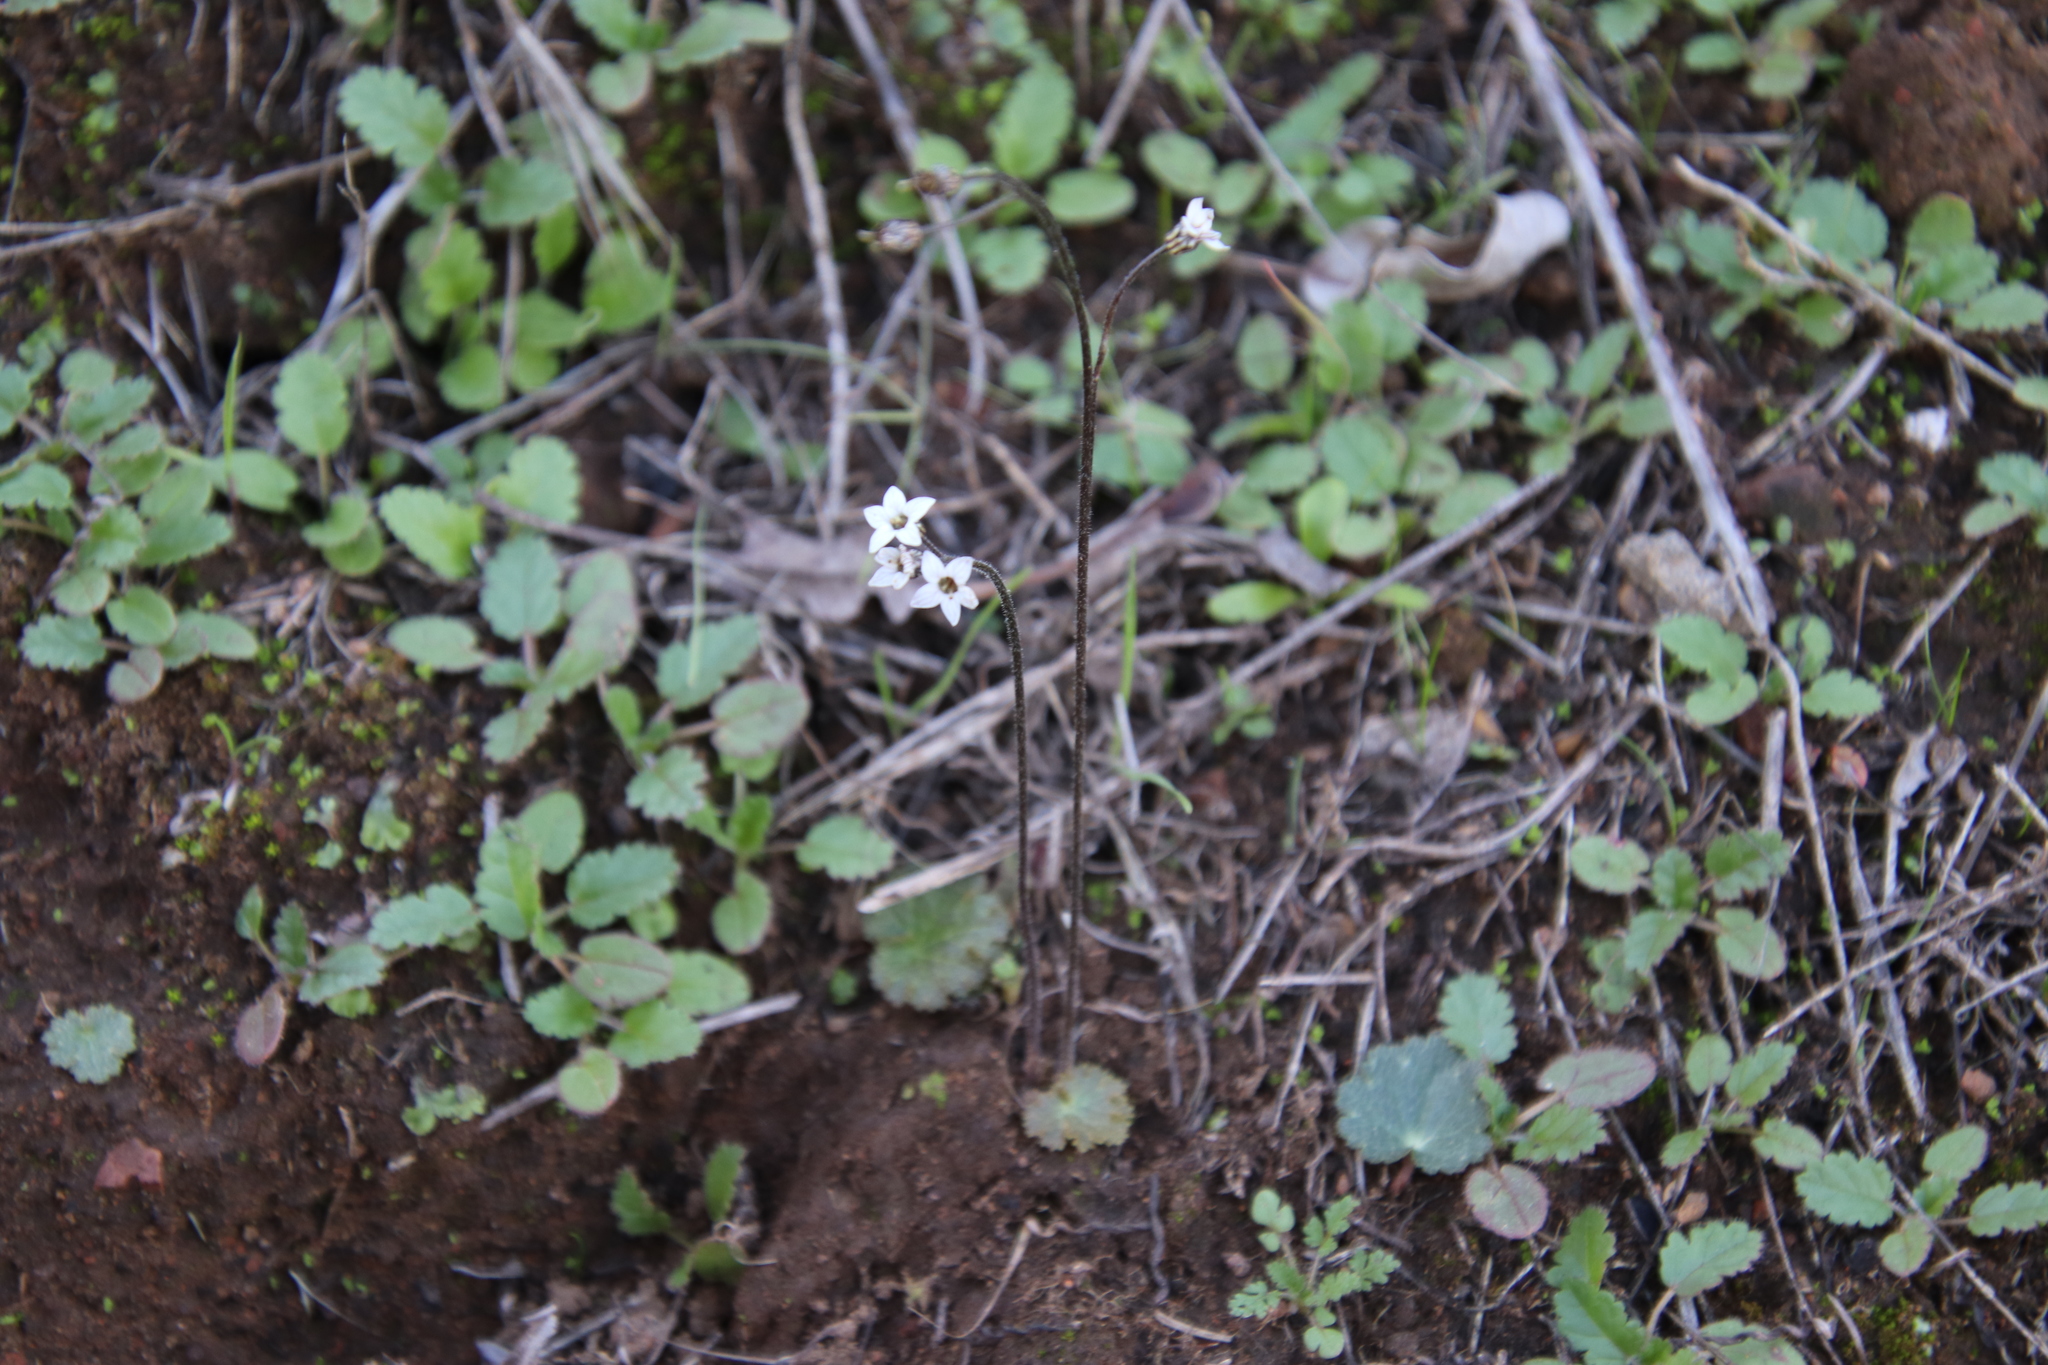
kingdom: Plantae
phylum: Tracheophyta
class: Magnoliopsida
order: Saxifragales
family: Saxifragaceae
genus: Jepsonia
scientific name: Jepsonia parryi
